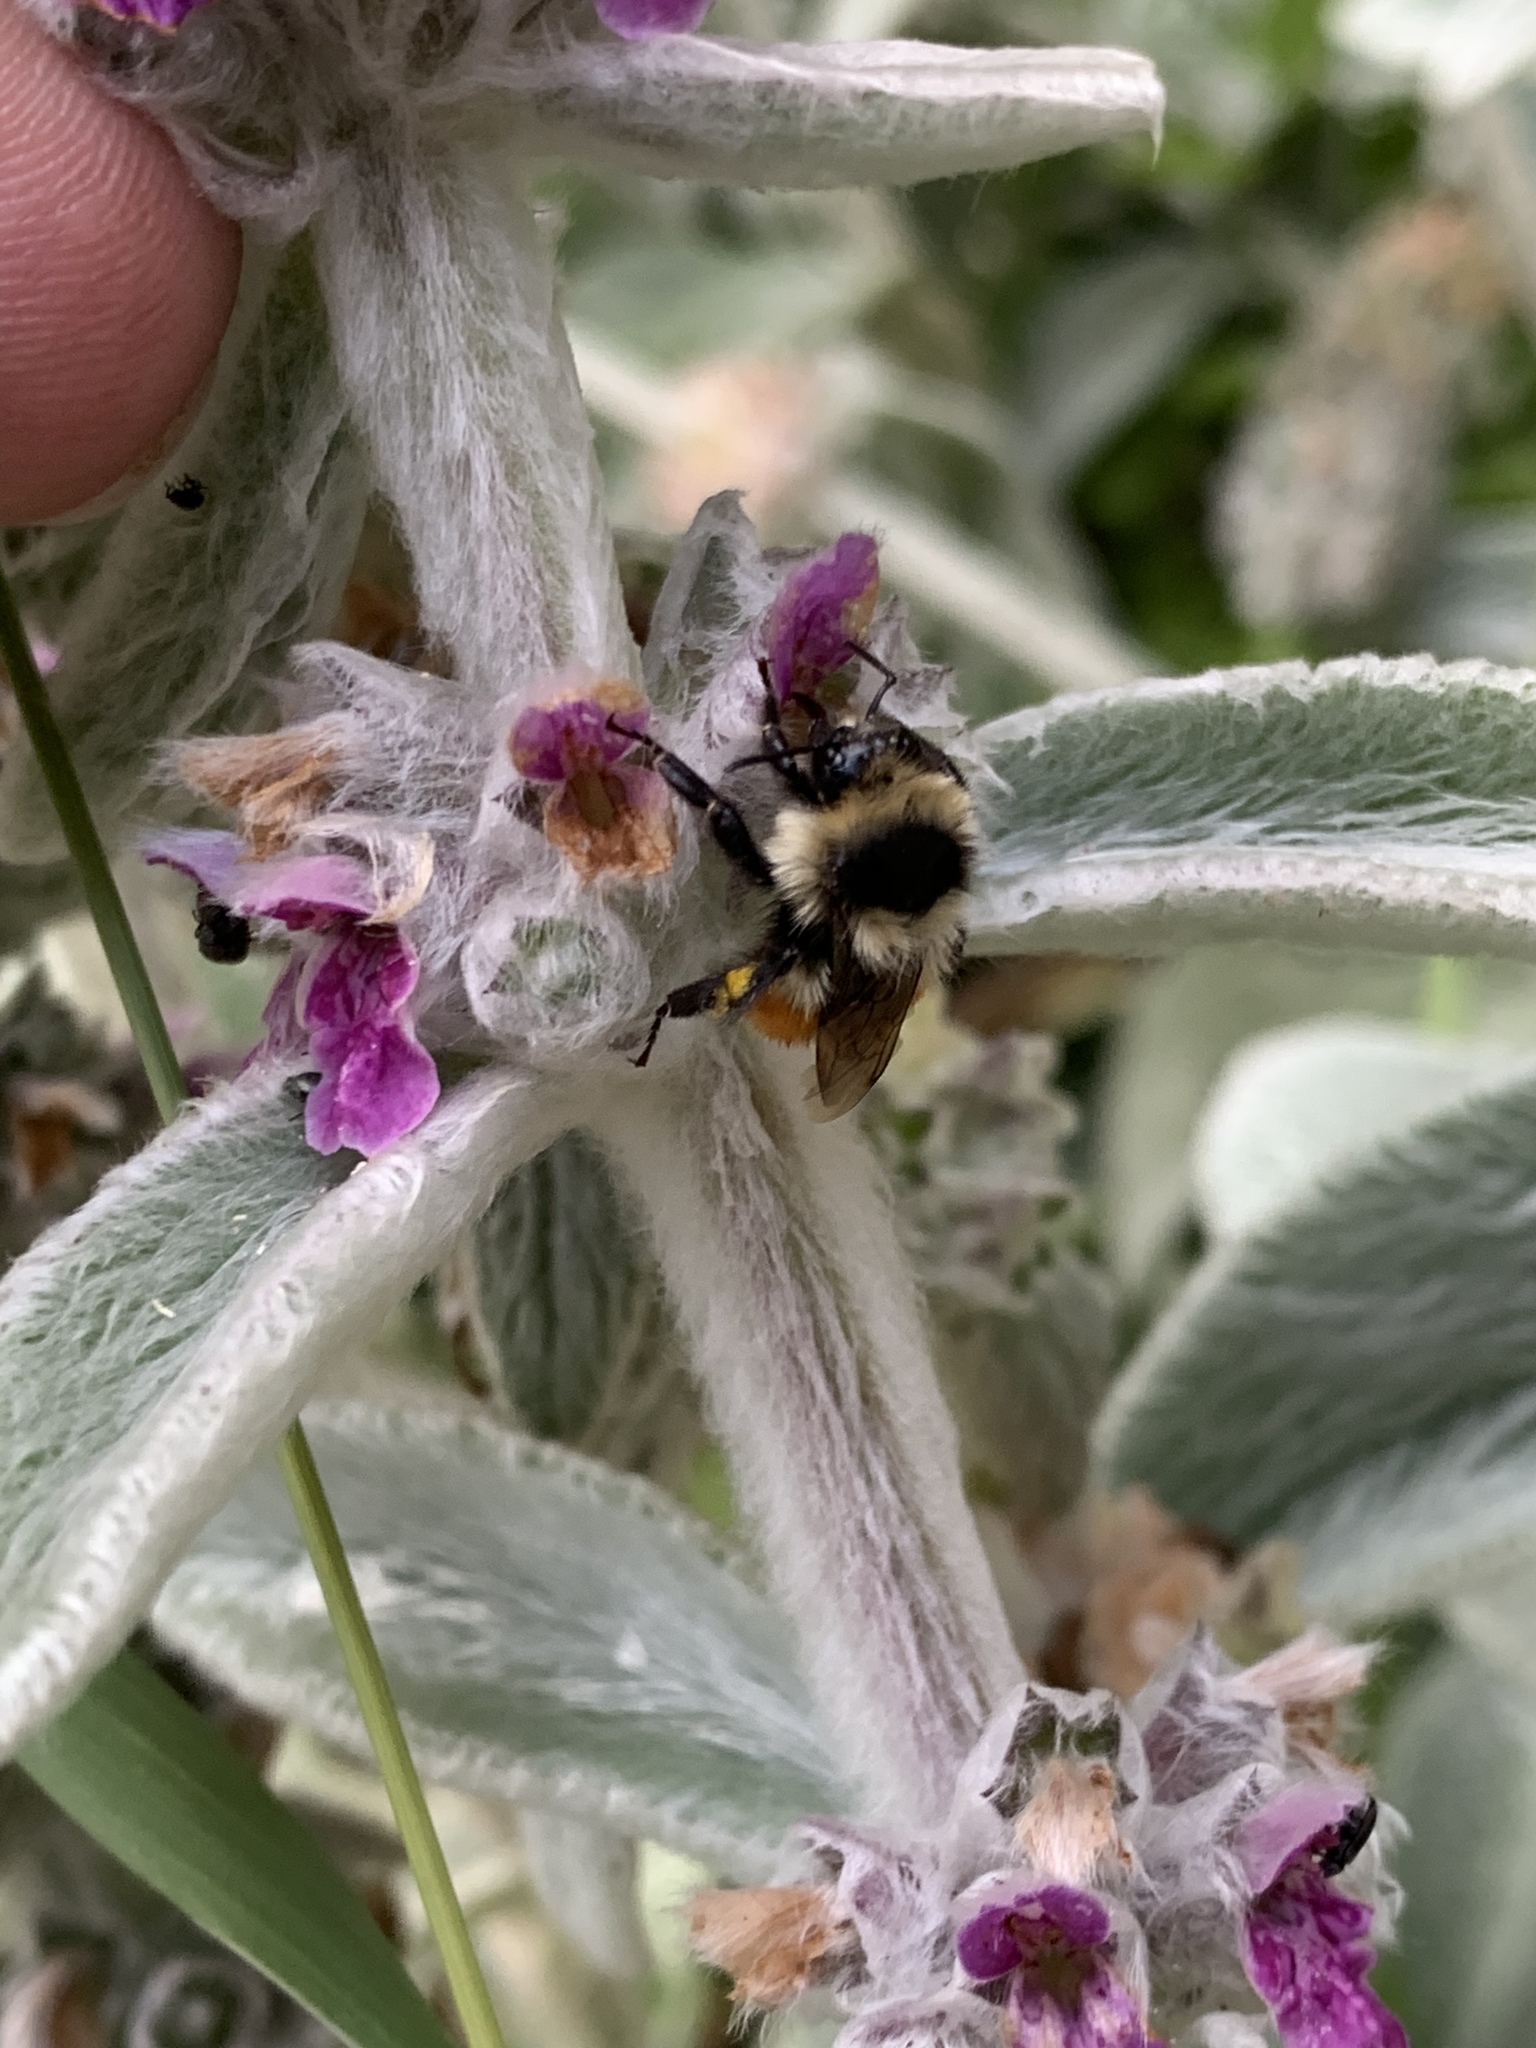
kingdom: Animalia
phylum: Arthropoda
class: Insecta
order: Hymenoptera
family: Apidae
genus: Bombus
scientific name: Bombus huntii
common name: Hunt bumble bee
